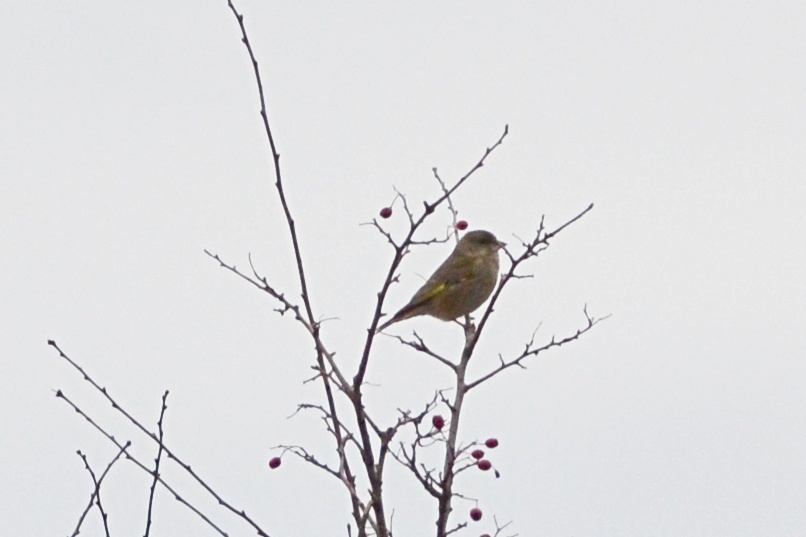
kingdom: Plantae
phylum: Tracheophyta
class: Liliopsida
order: Poales
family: Poaceae
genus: Chloris
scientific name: Chloris chloris
